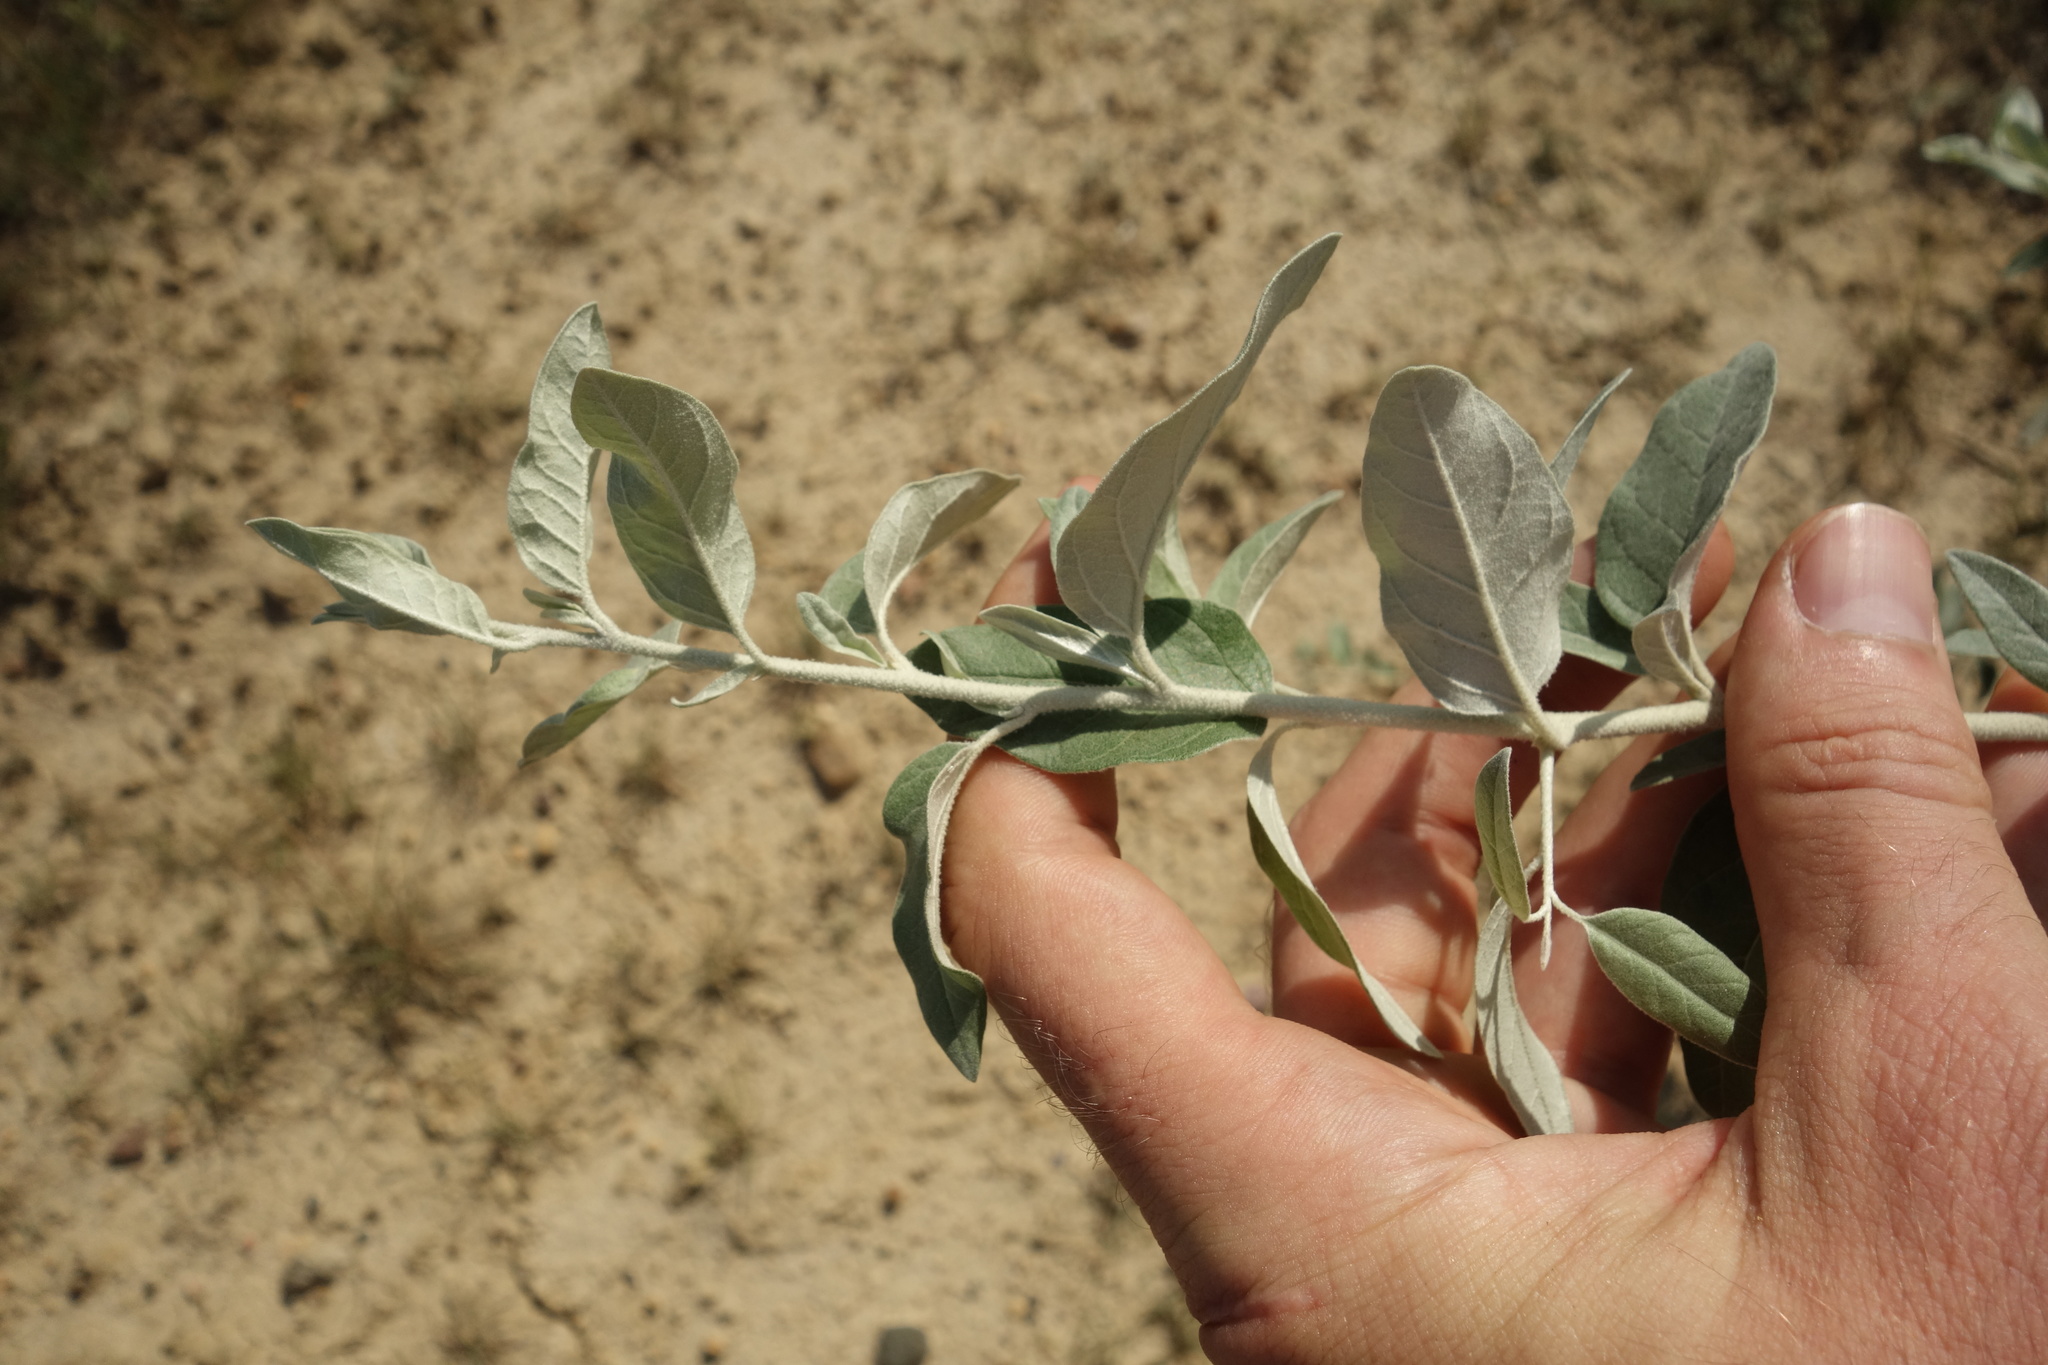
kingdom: Plantae
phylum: Tracheophyta
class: Magnoliopsida
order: Rosales
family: Elaeagnaceae
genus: Elaeagnus
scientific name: Elaeagnus angustifolia
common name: Russian olive
